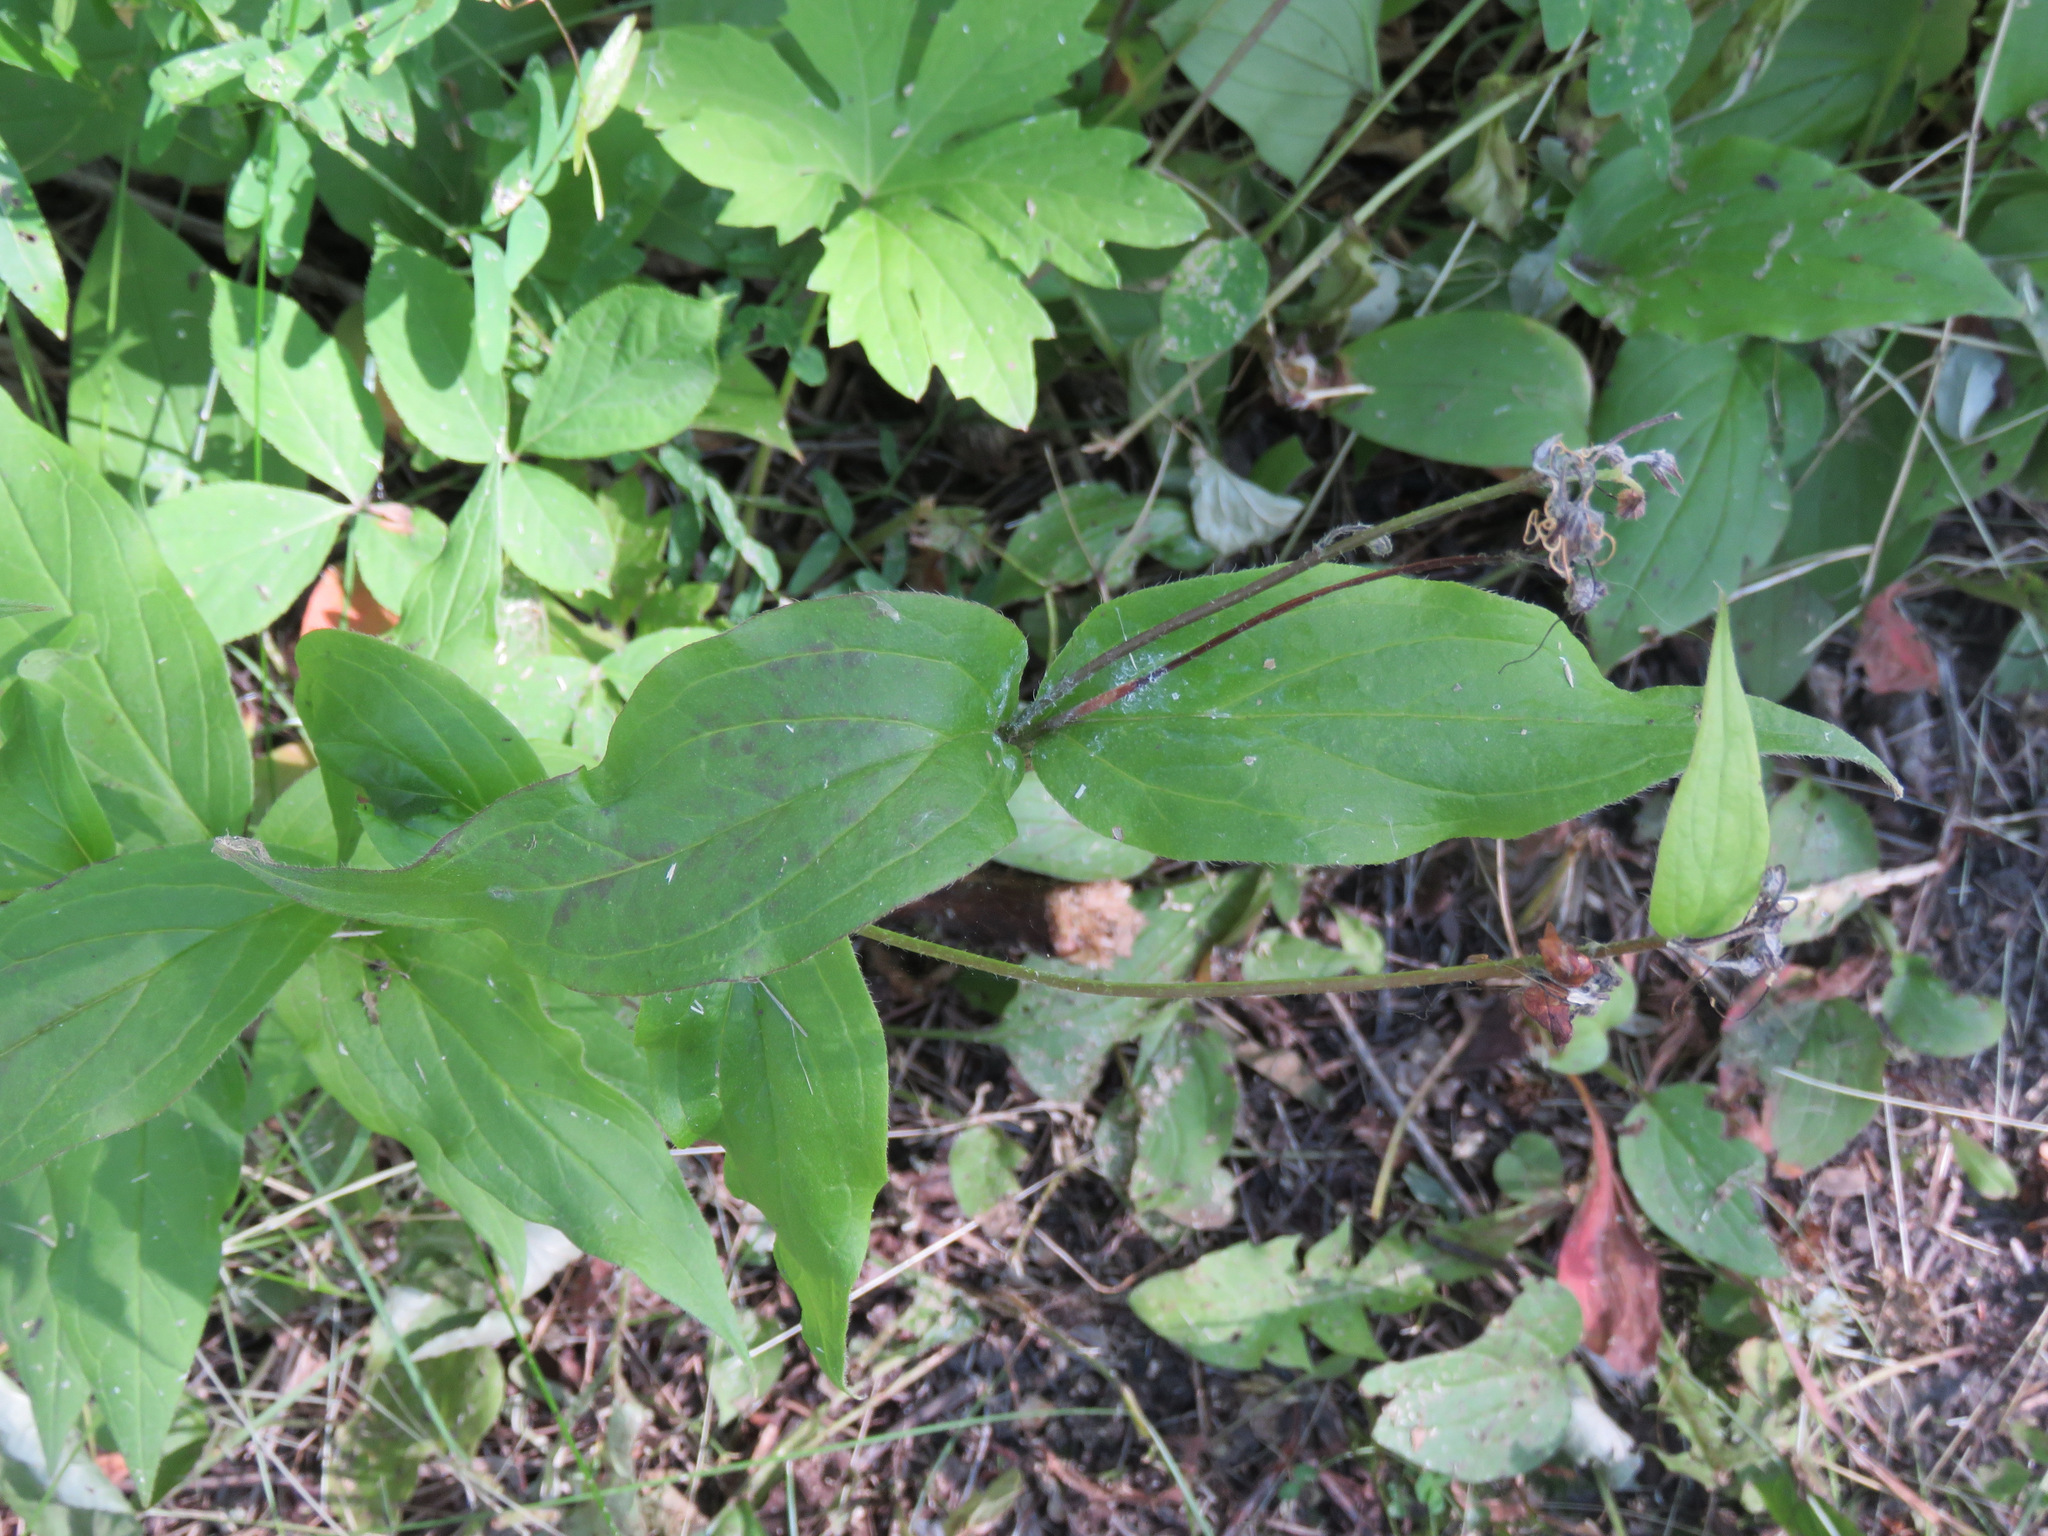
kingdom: Plantae
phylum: Tracheophyta
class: Magnoliopsida
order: Boraginales
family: Boraginaceae
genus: Mertensia
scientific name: Mertensia paniculata
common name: Panicled bluebells
